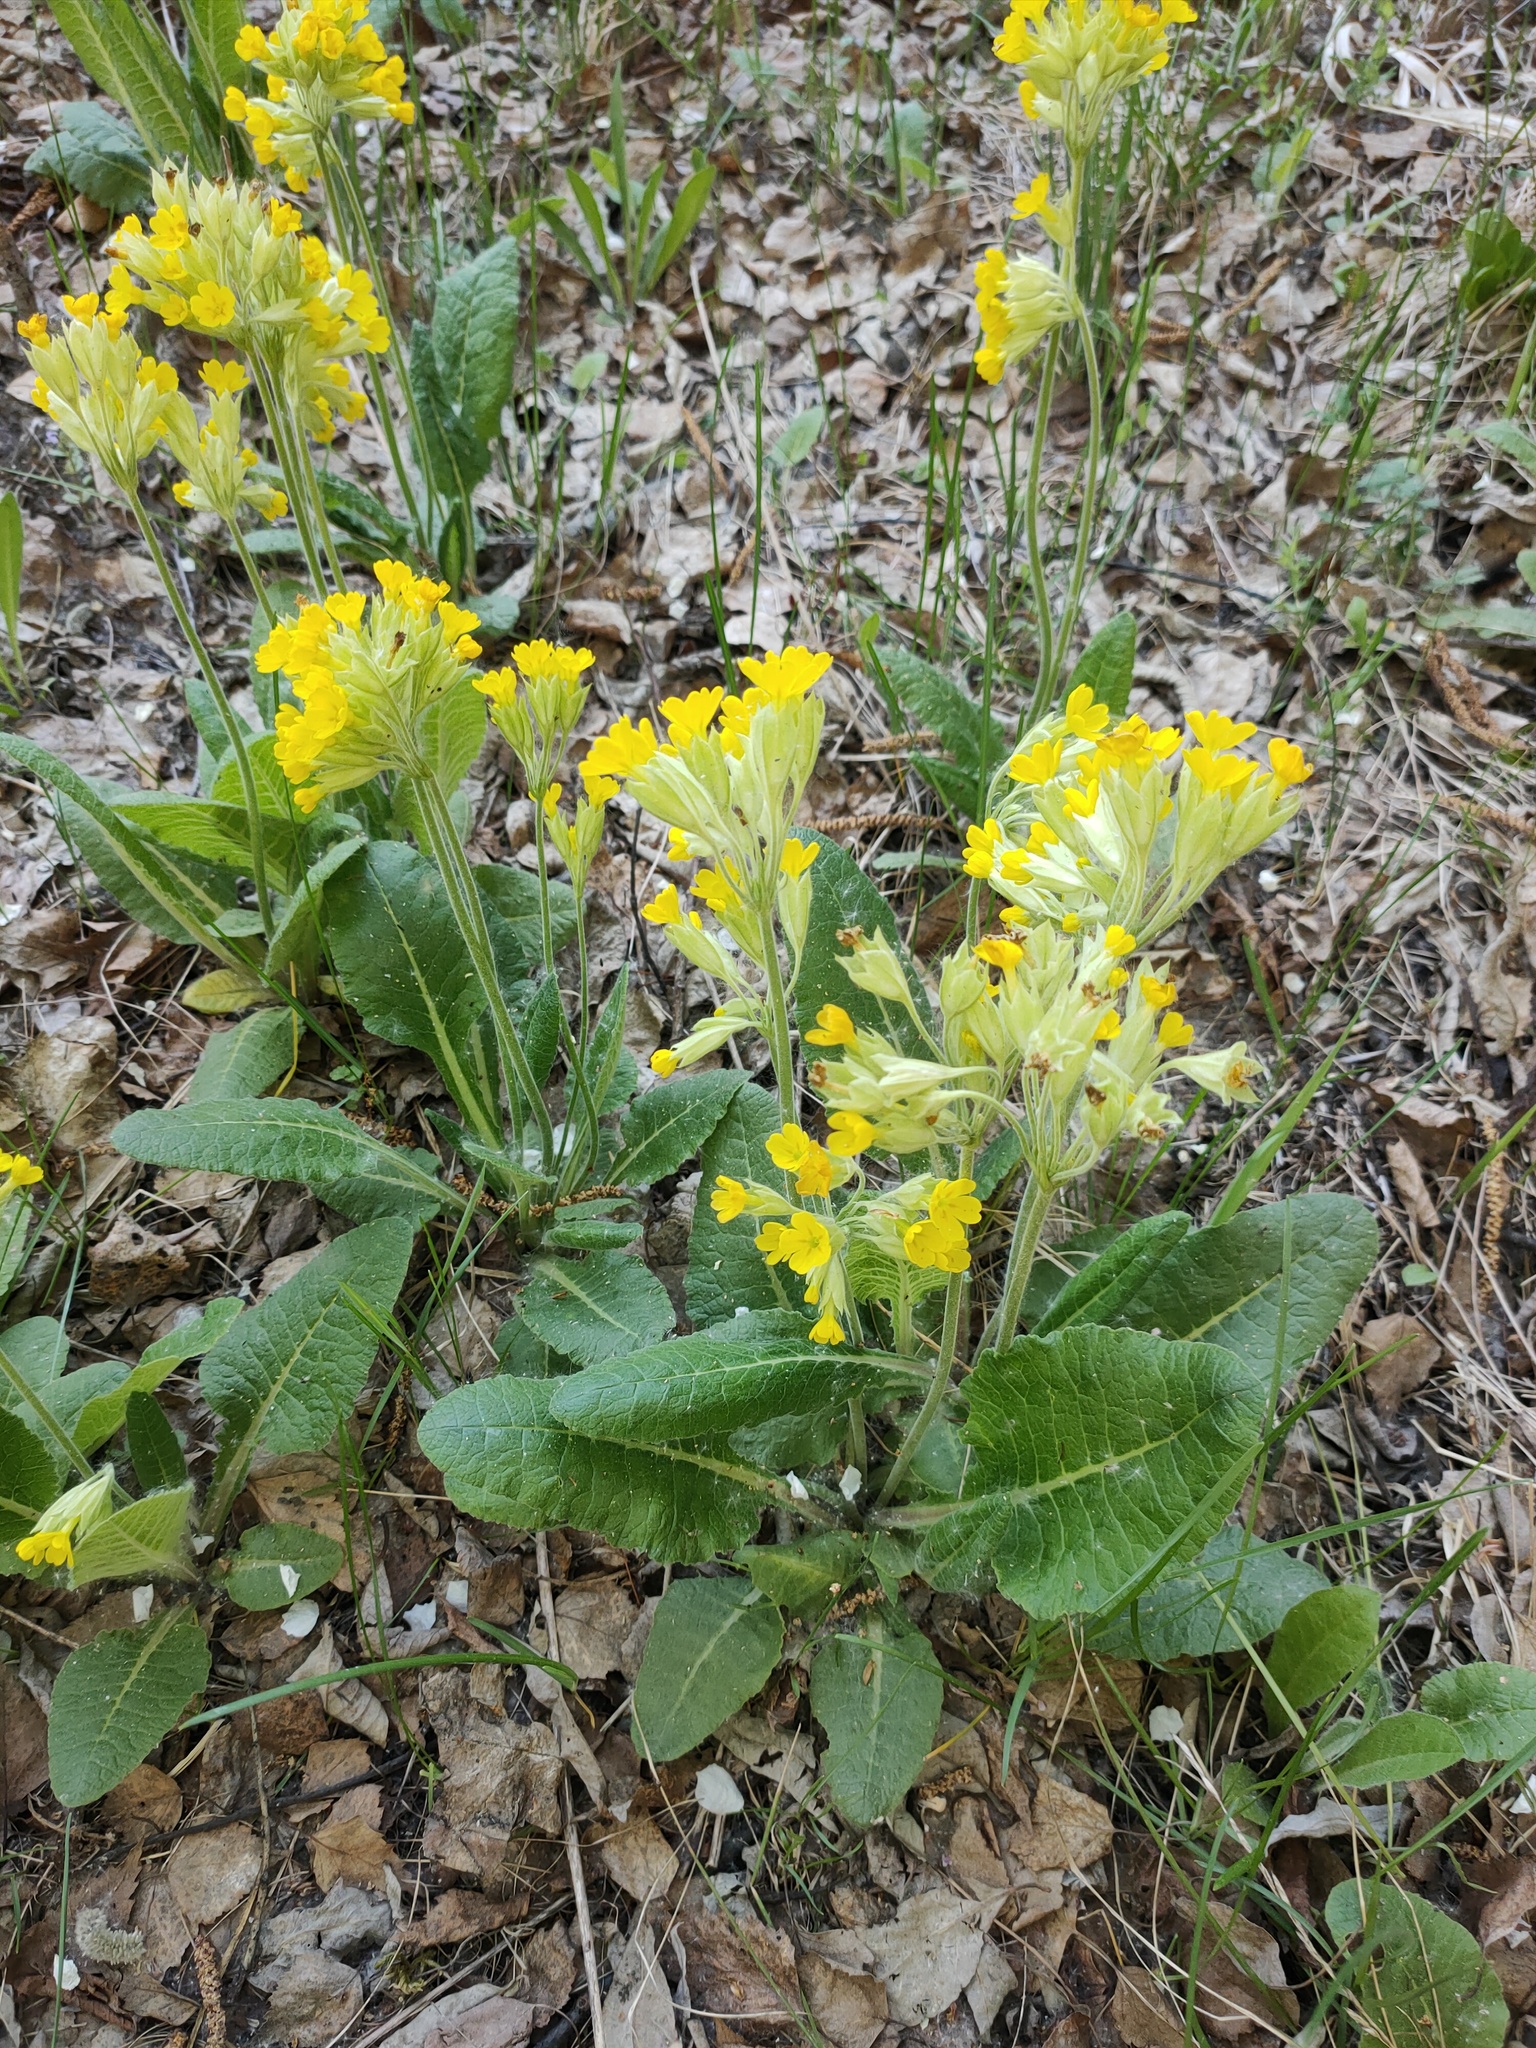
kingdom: Plantae
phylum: Tracheophyta
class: Magnoliopsida
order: Ericales
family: Primulaceae
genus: Primula
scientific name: Primula veris
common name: Cowslip
